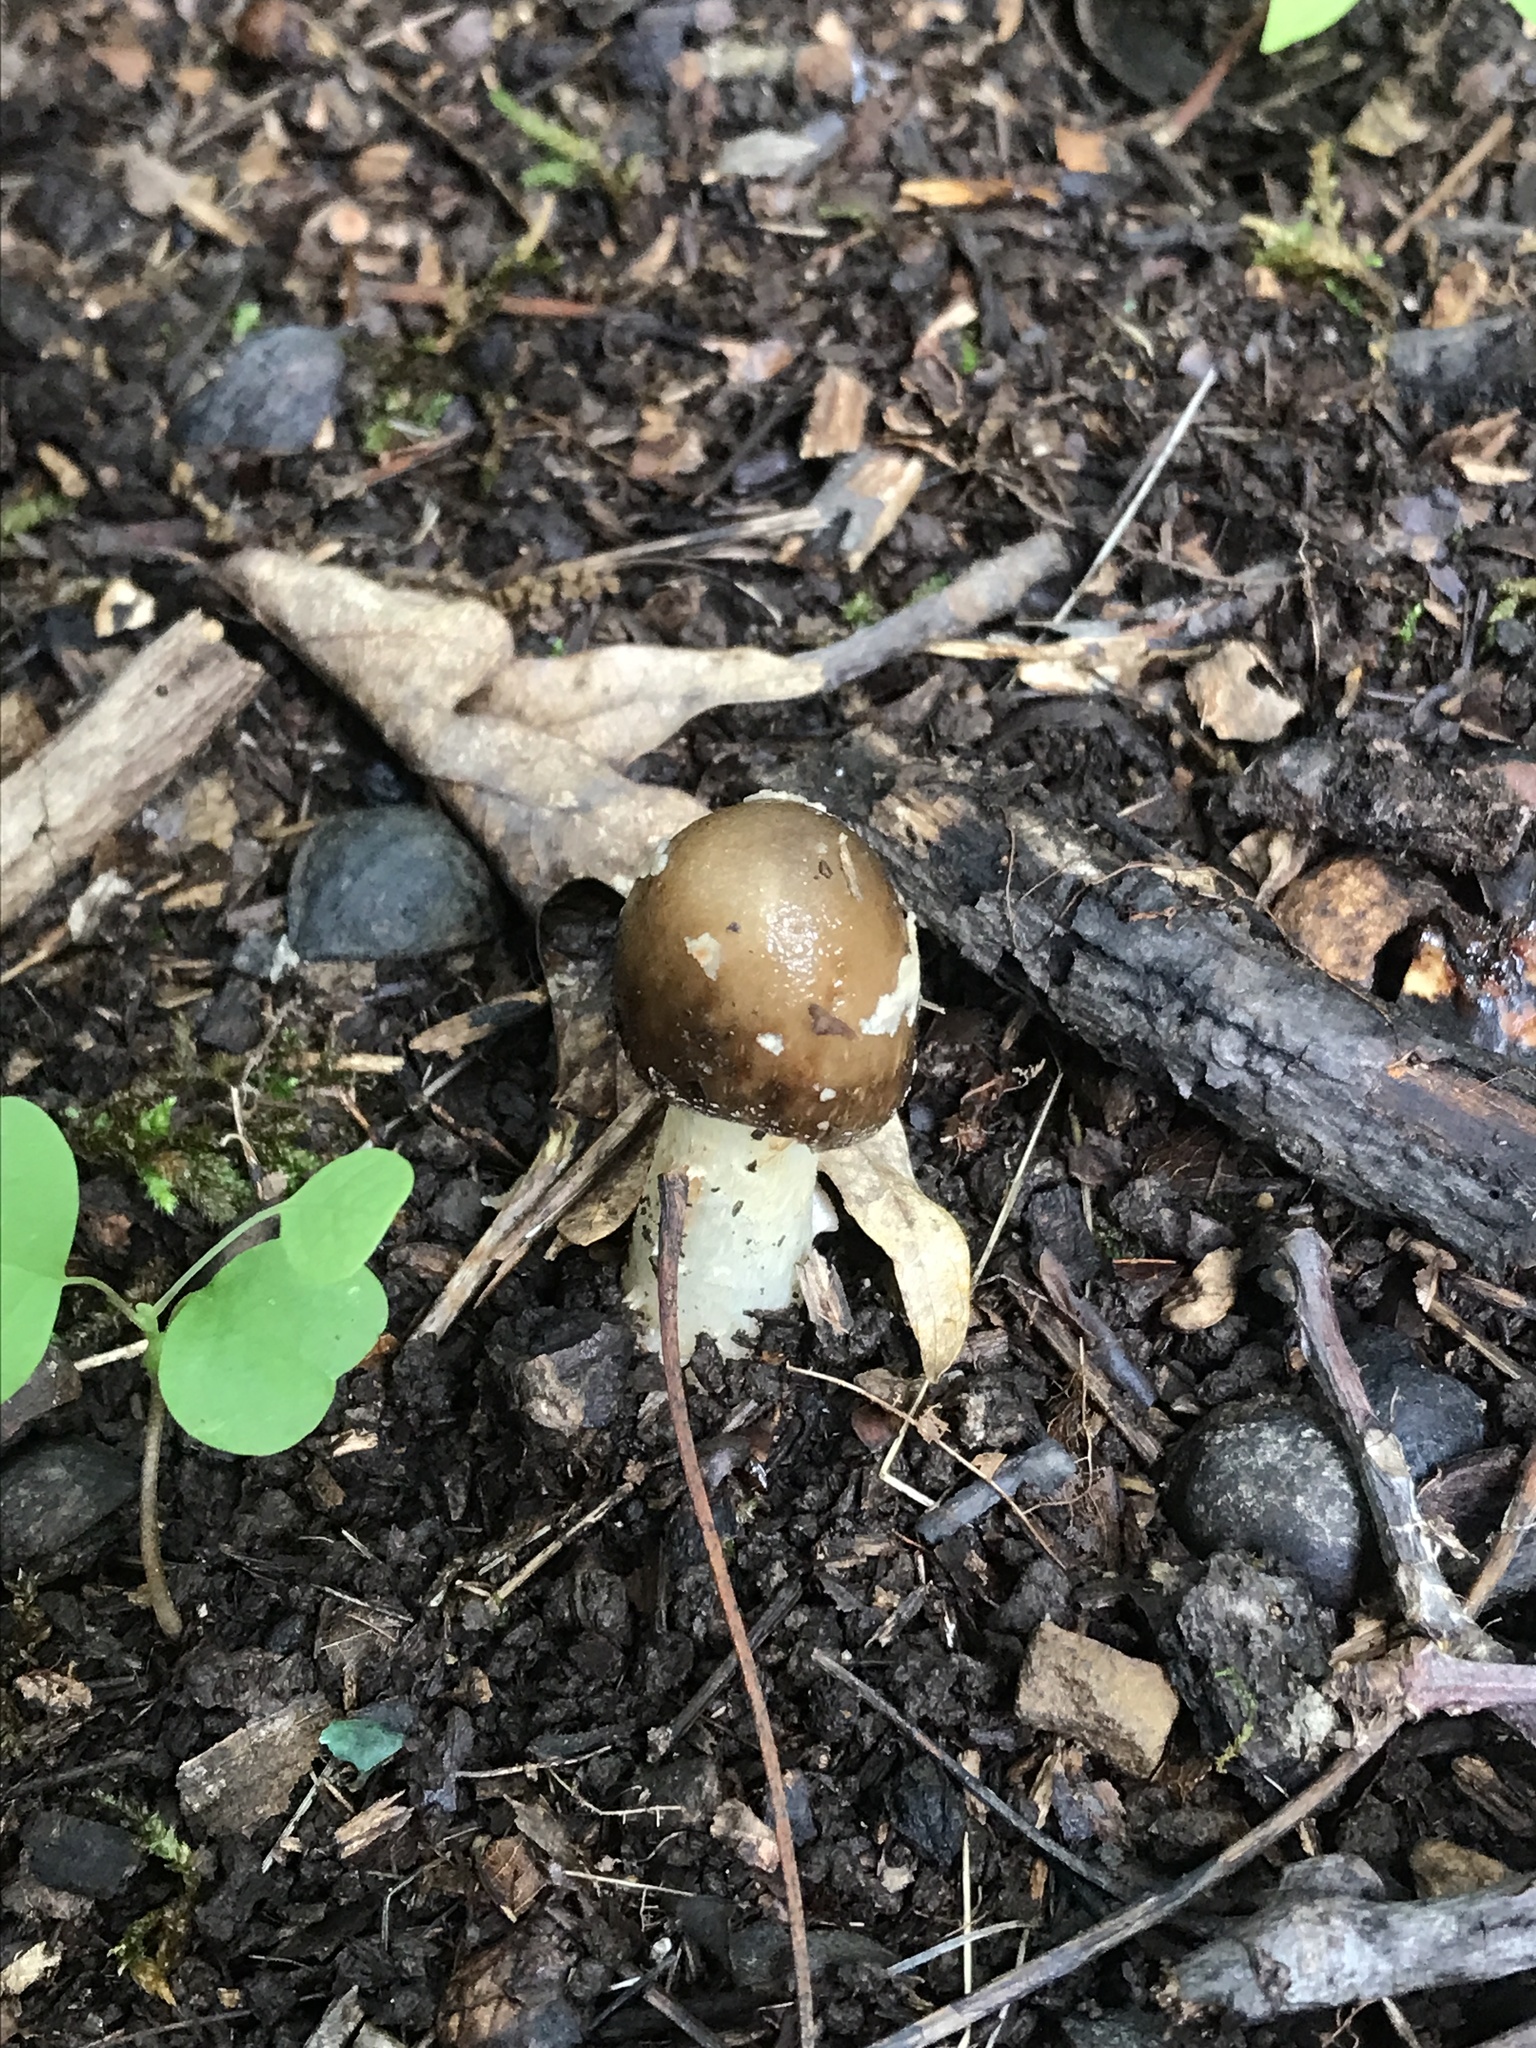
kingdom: Fungi
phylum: Basidiomycota
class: Agaricomycetes
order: Agaricales
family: Amanitaceae
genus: Amanita
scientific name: Amanita brunnescens
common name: Brown american star-footed amanita
